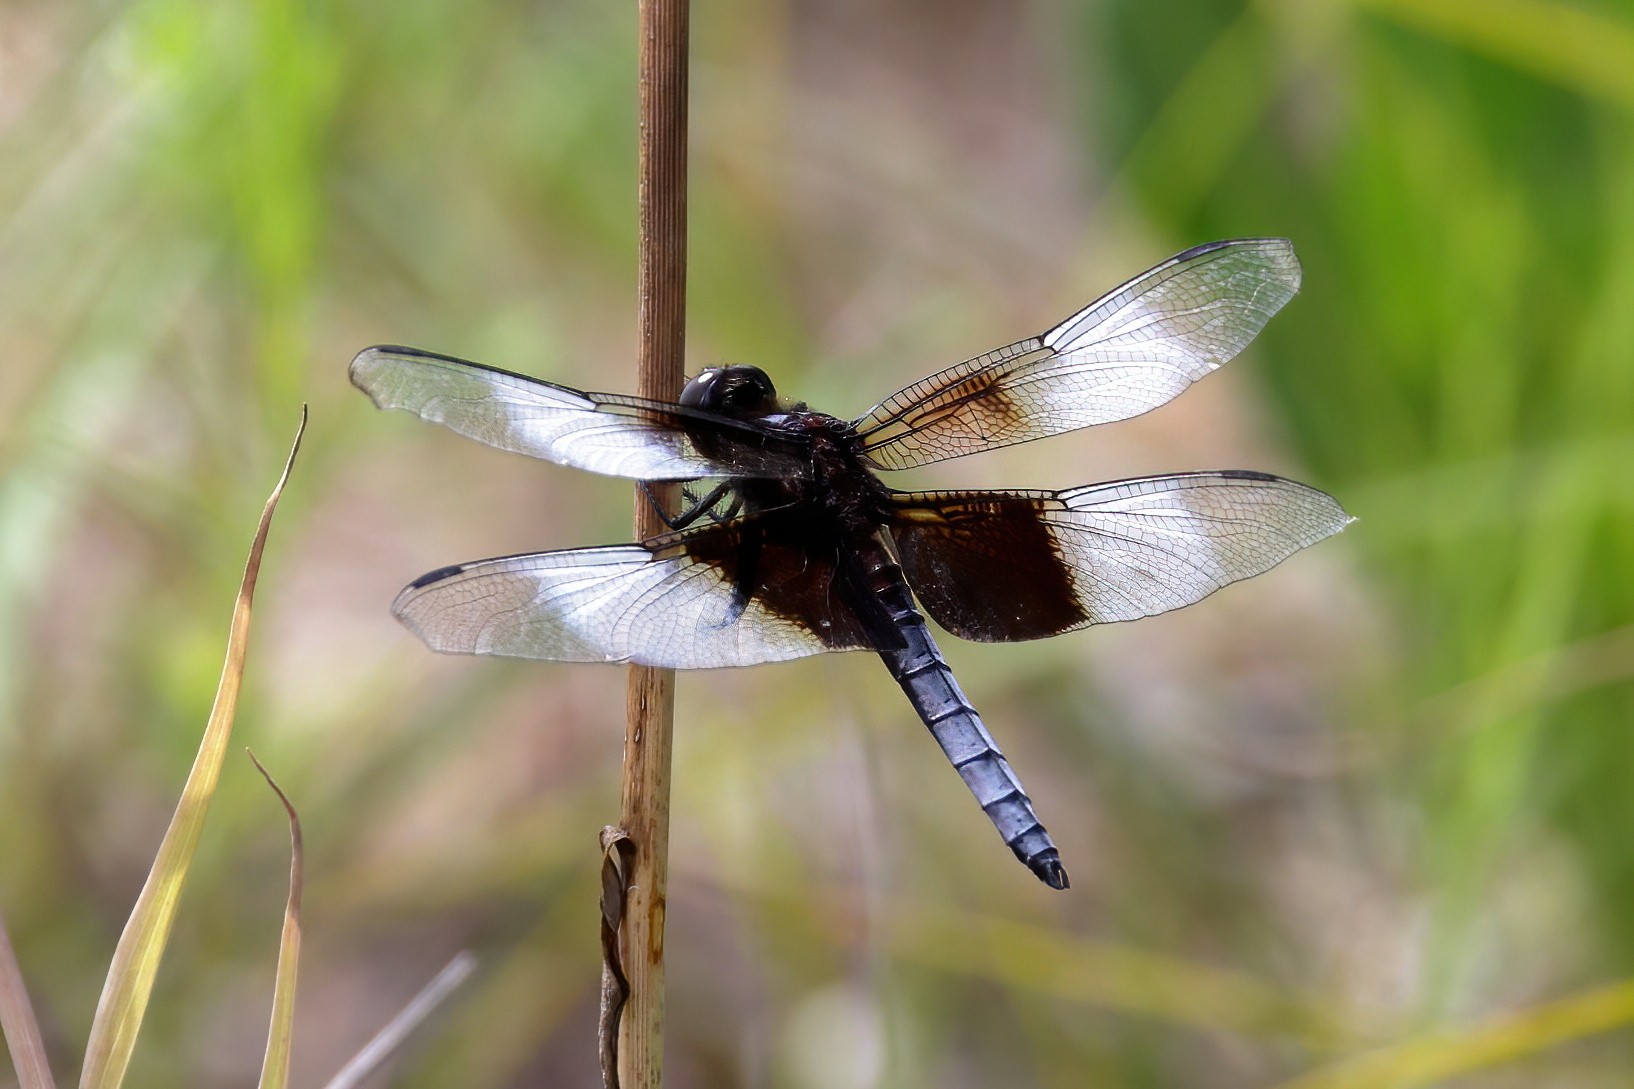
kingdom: Animalia
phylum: Arthropoda
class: Insecta
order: Odonata
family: Libellulidae
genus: Libellula
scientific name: Libellula luctuosa
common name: Widow skimmer
